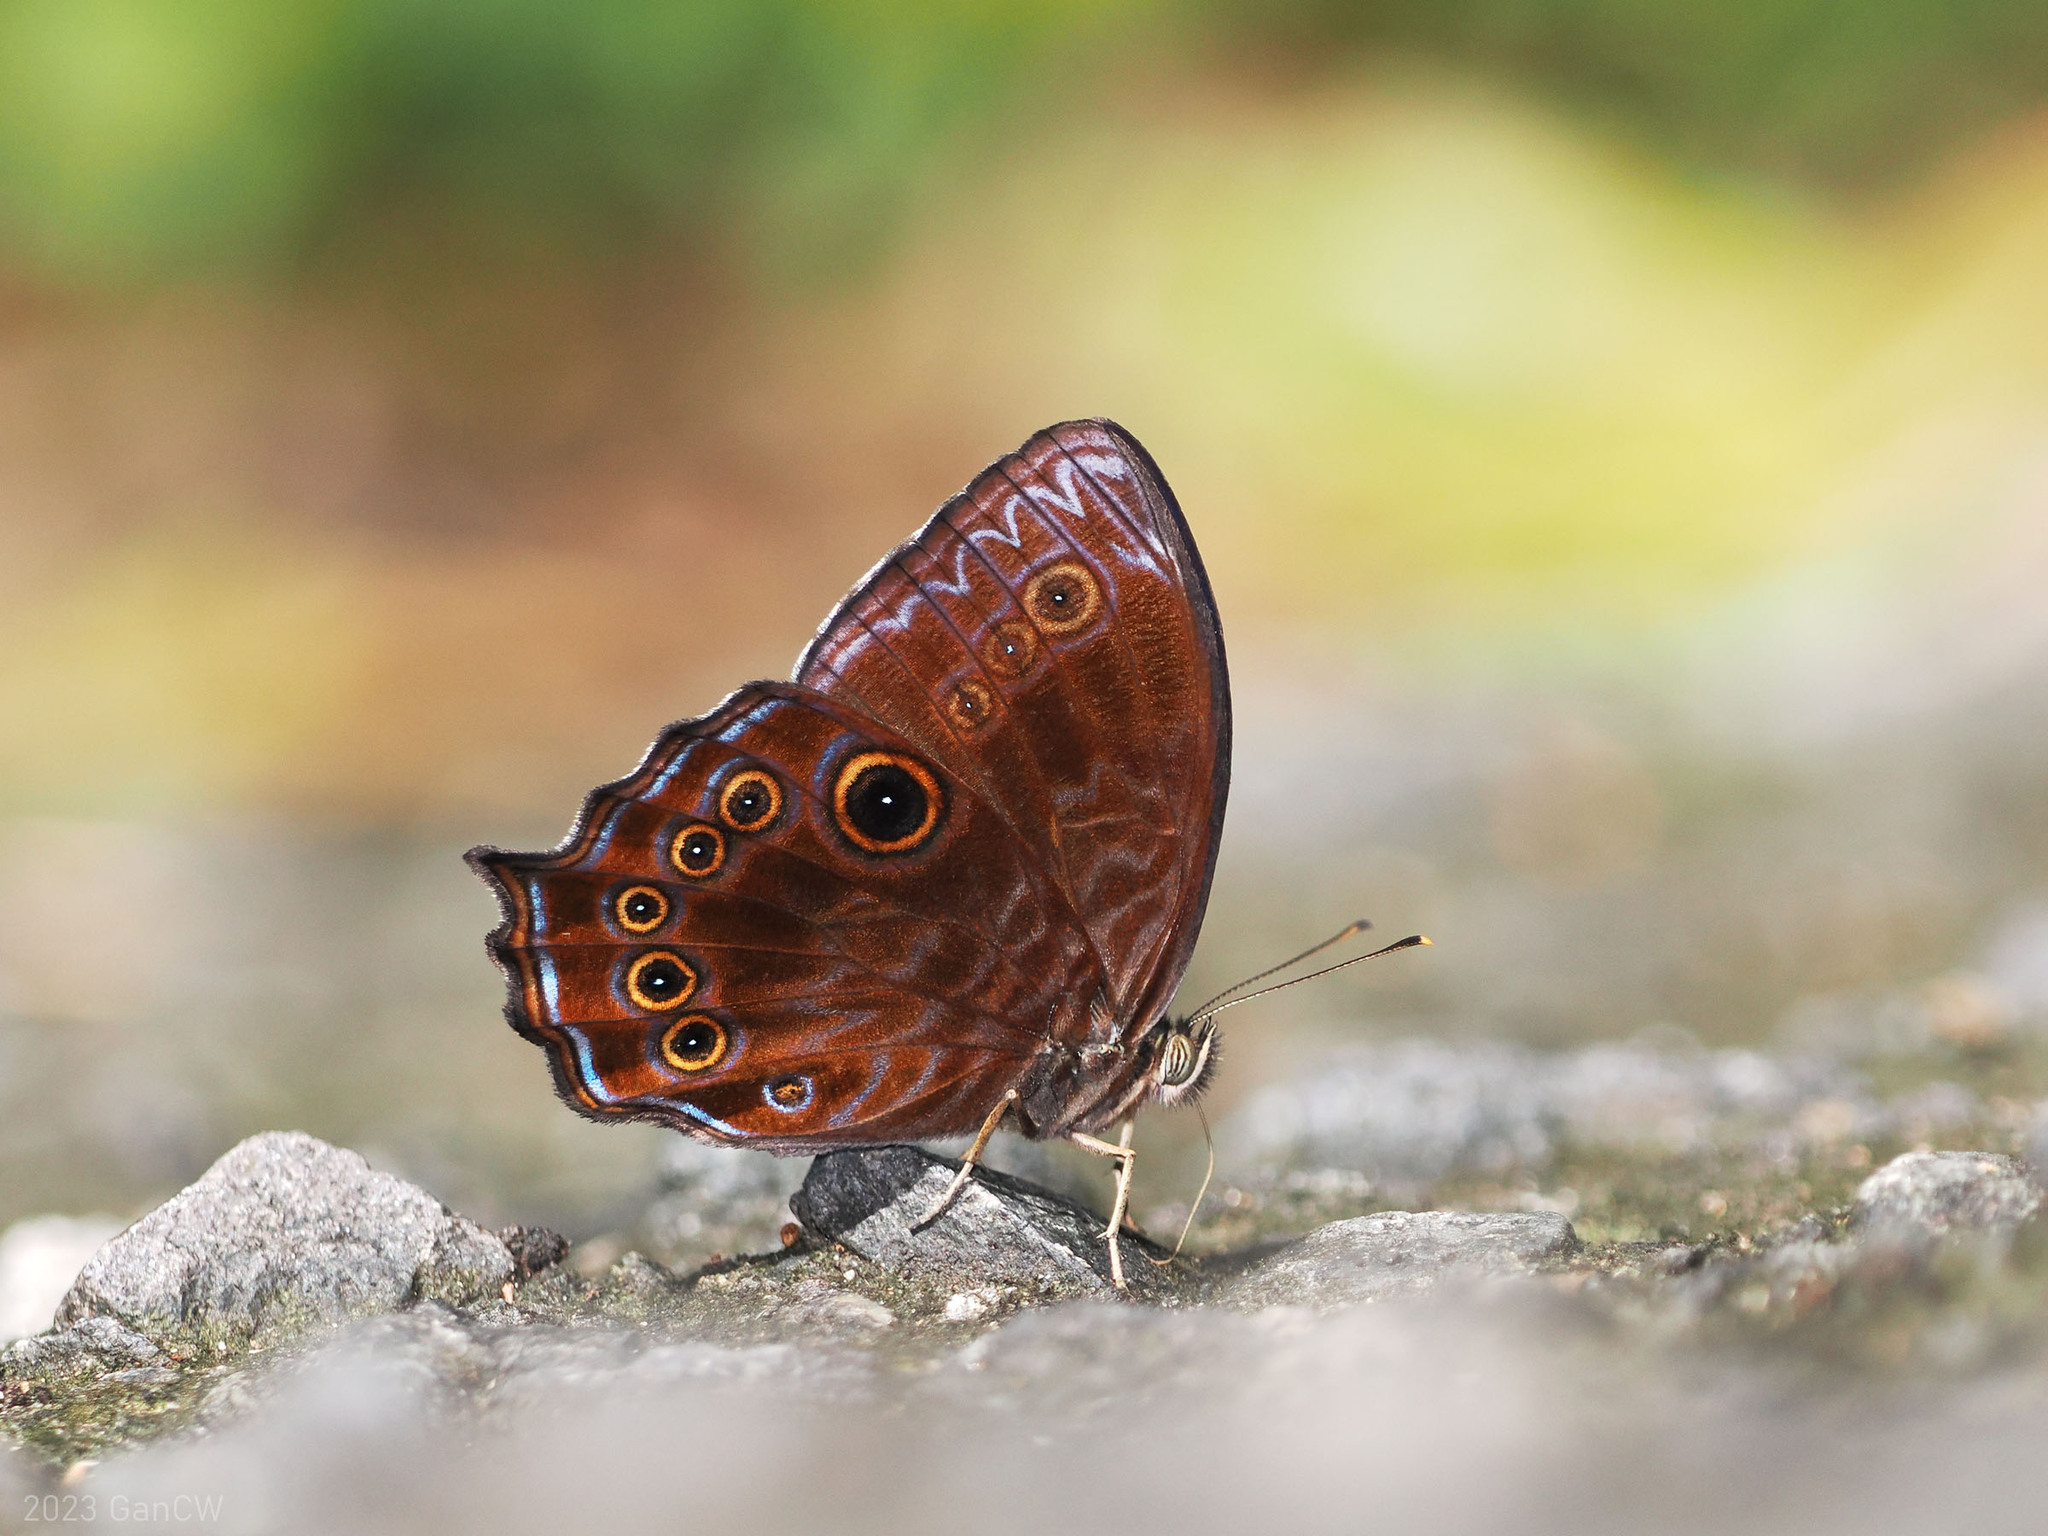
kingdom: Animalia
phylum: Arthropoda
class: Insecta
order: Lepidoptera
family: Nymphalidae
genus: Ptychandra
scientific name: Ptychandra lorquinii
